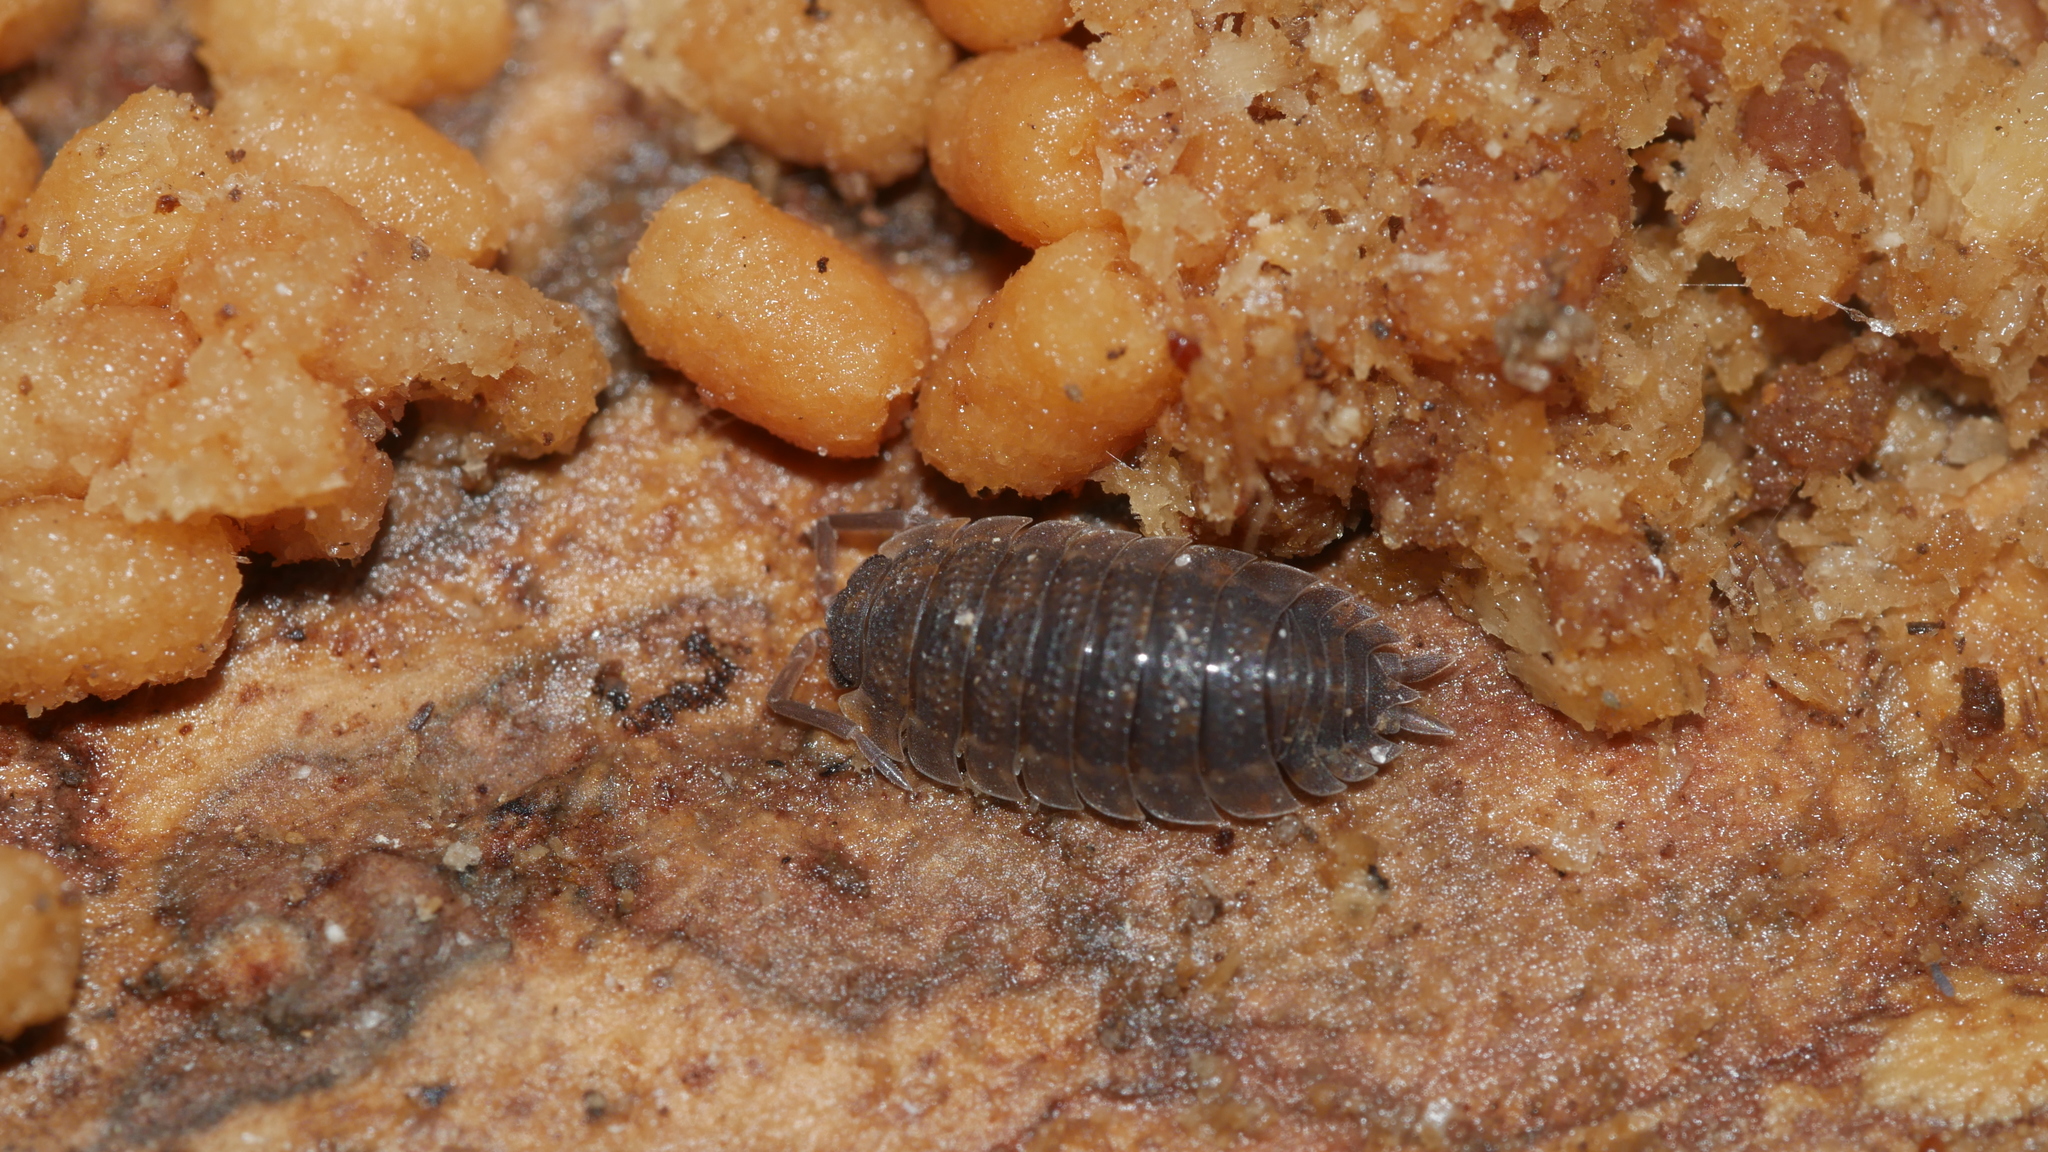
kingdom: Animalia
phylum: Arthropoda
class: Malacostraca
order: Isopoda
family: Porcellionidae
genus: Porcellio
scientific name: Porcellio scaber
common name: Common rough woodlouse
